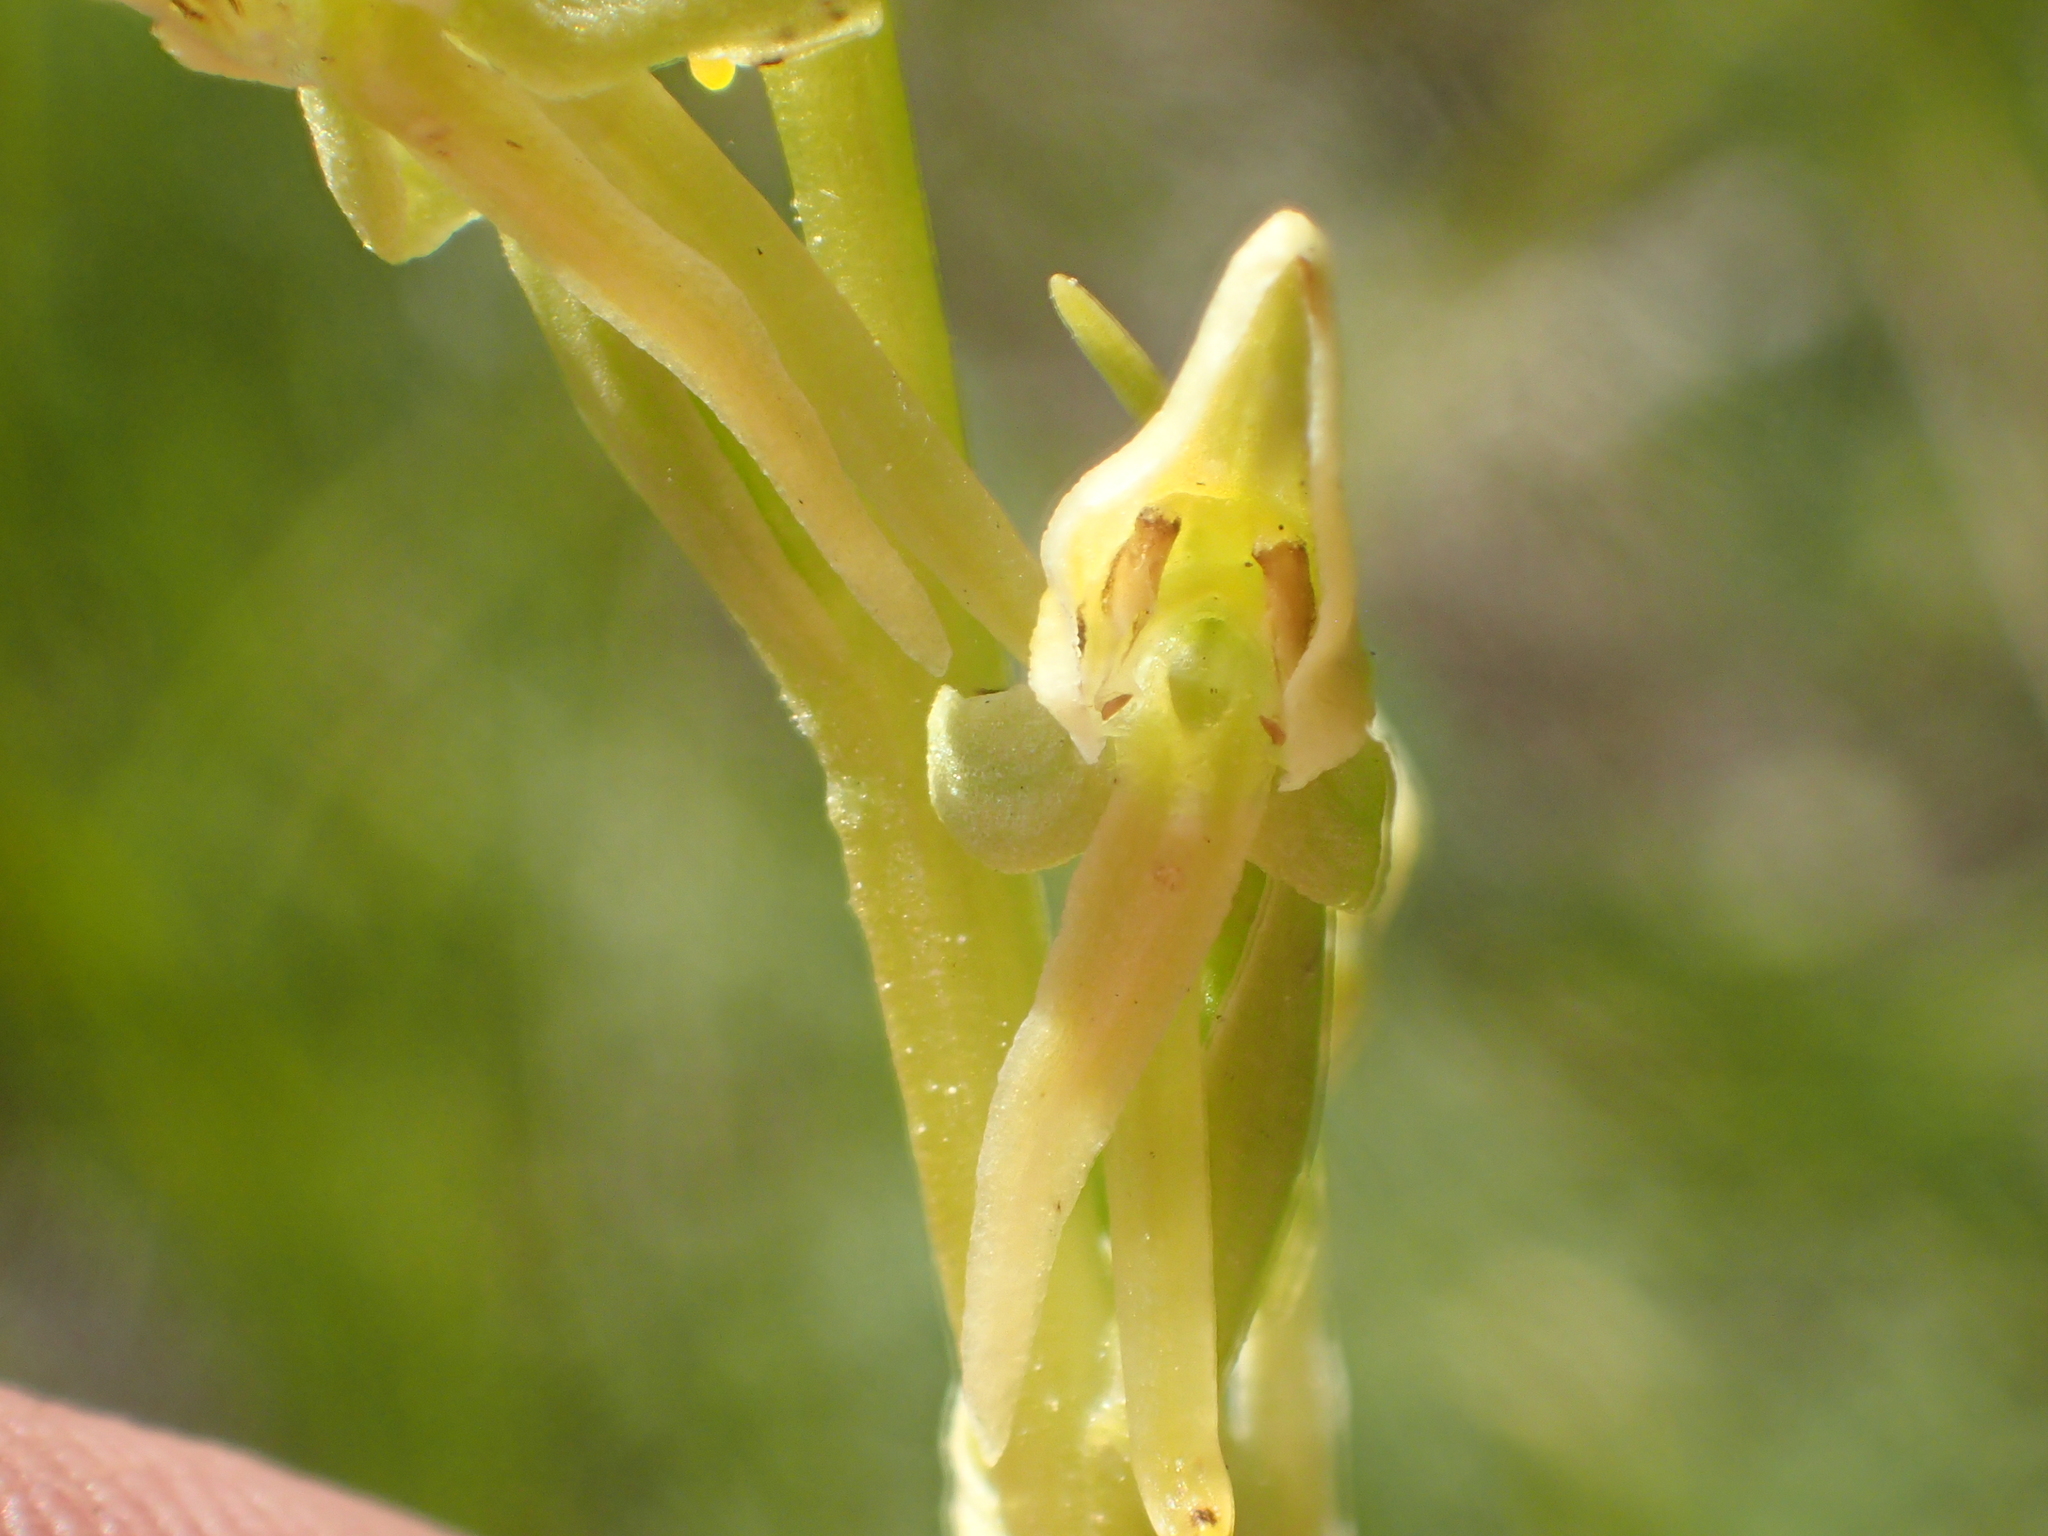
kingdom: Plantae
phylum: Tracheophyta
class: Liliopsida
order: Asparagales
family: Orchidaceae
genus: Platanthera
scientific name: Platanthera sparsiflora
